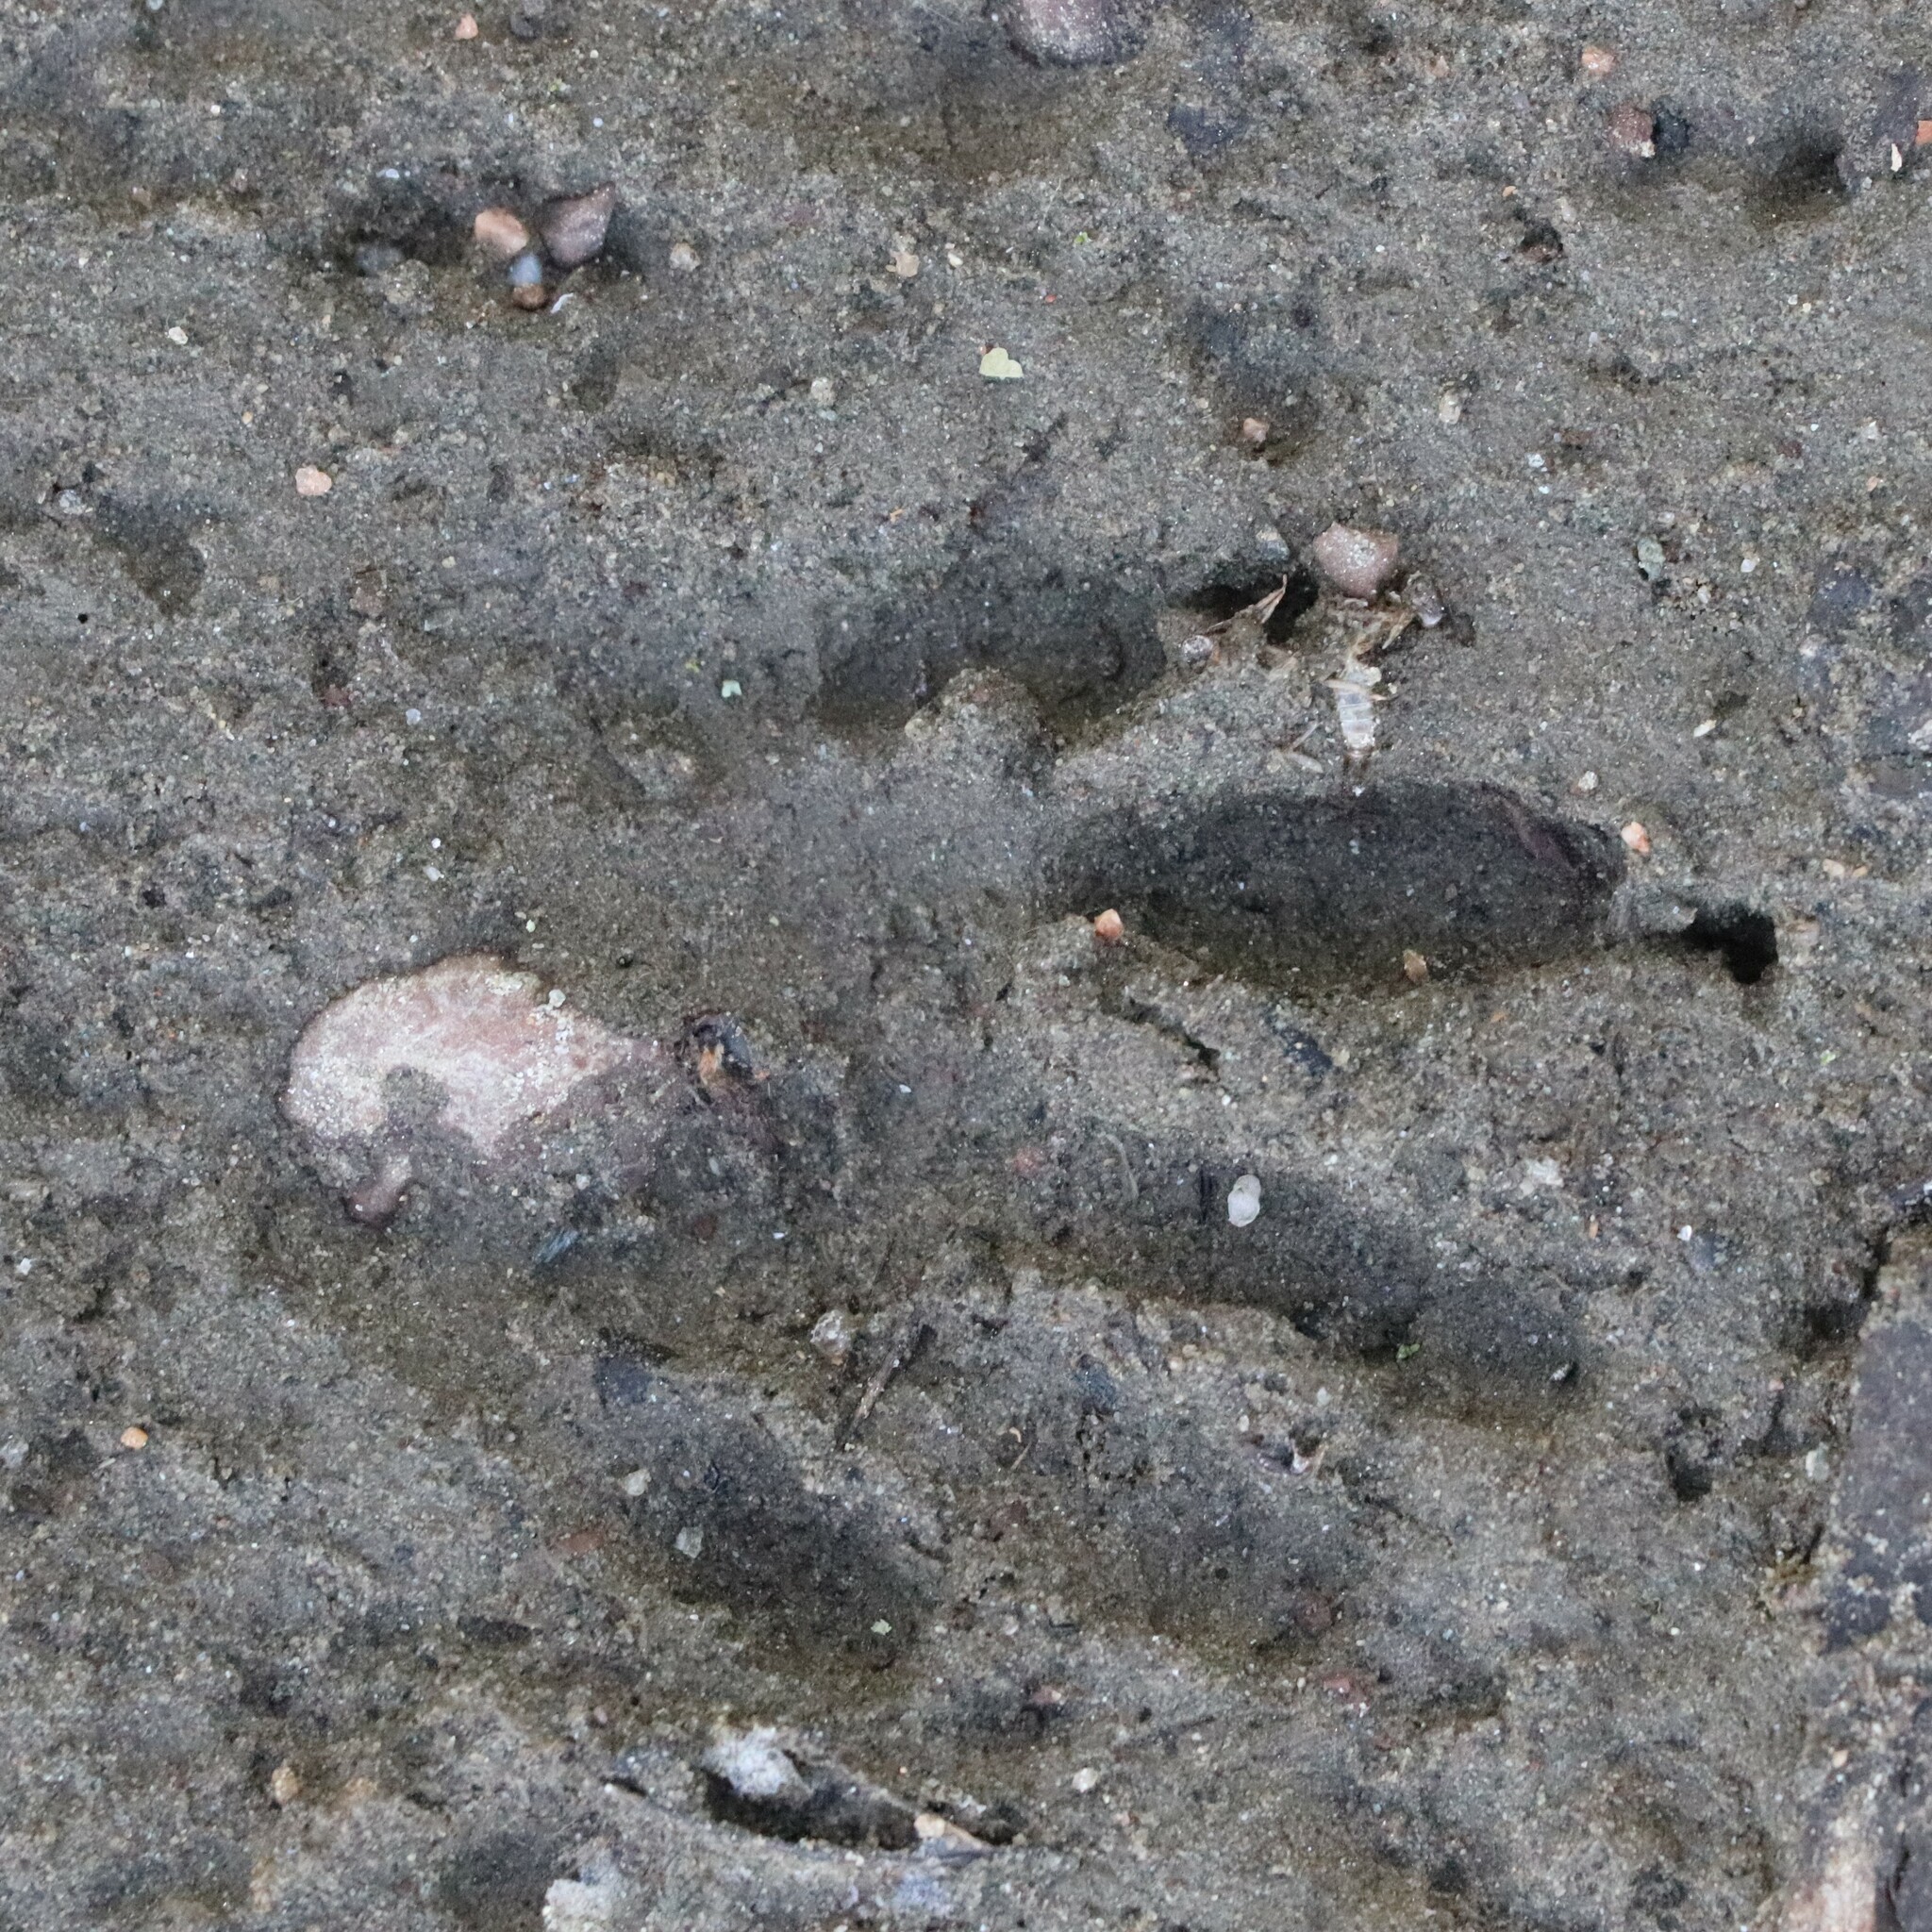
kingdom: Animalia
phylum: Chordata
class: Mammalia
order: Carnivora
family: Procyonidae
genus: Procyon
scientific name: Procyon lotor
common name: Raccoon
